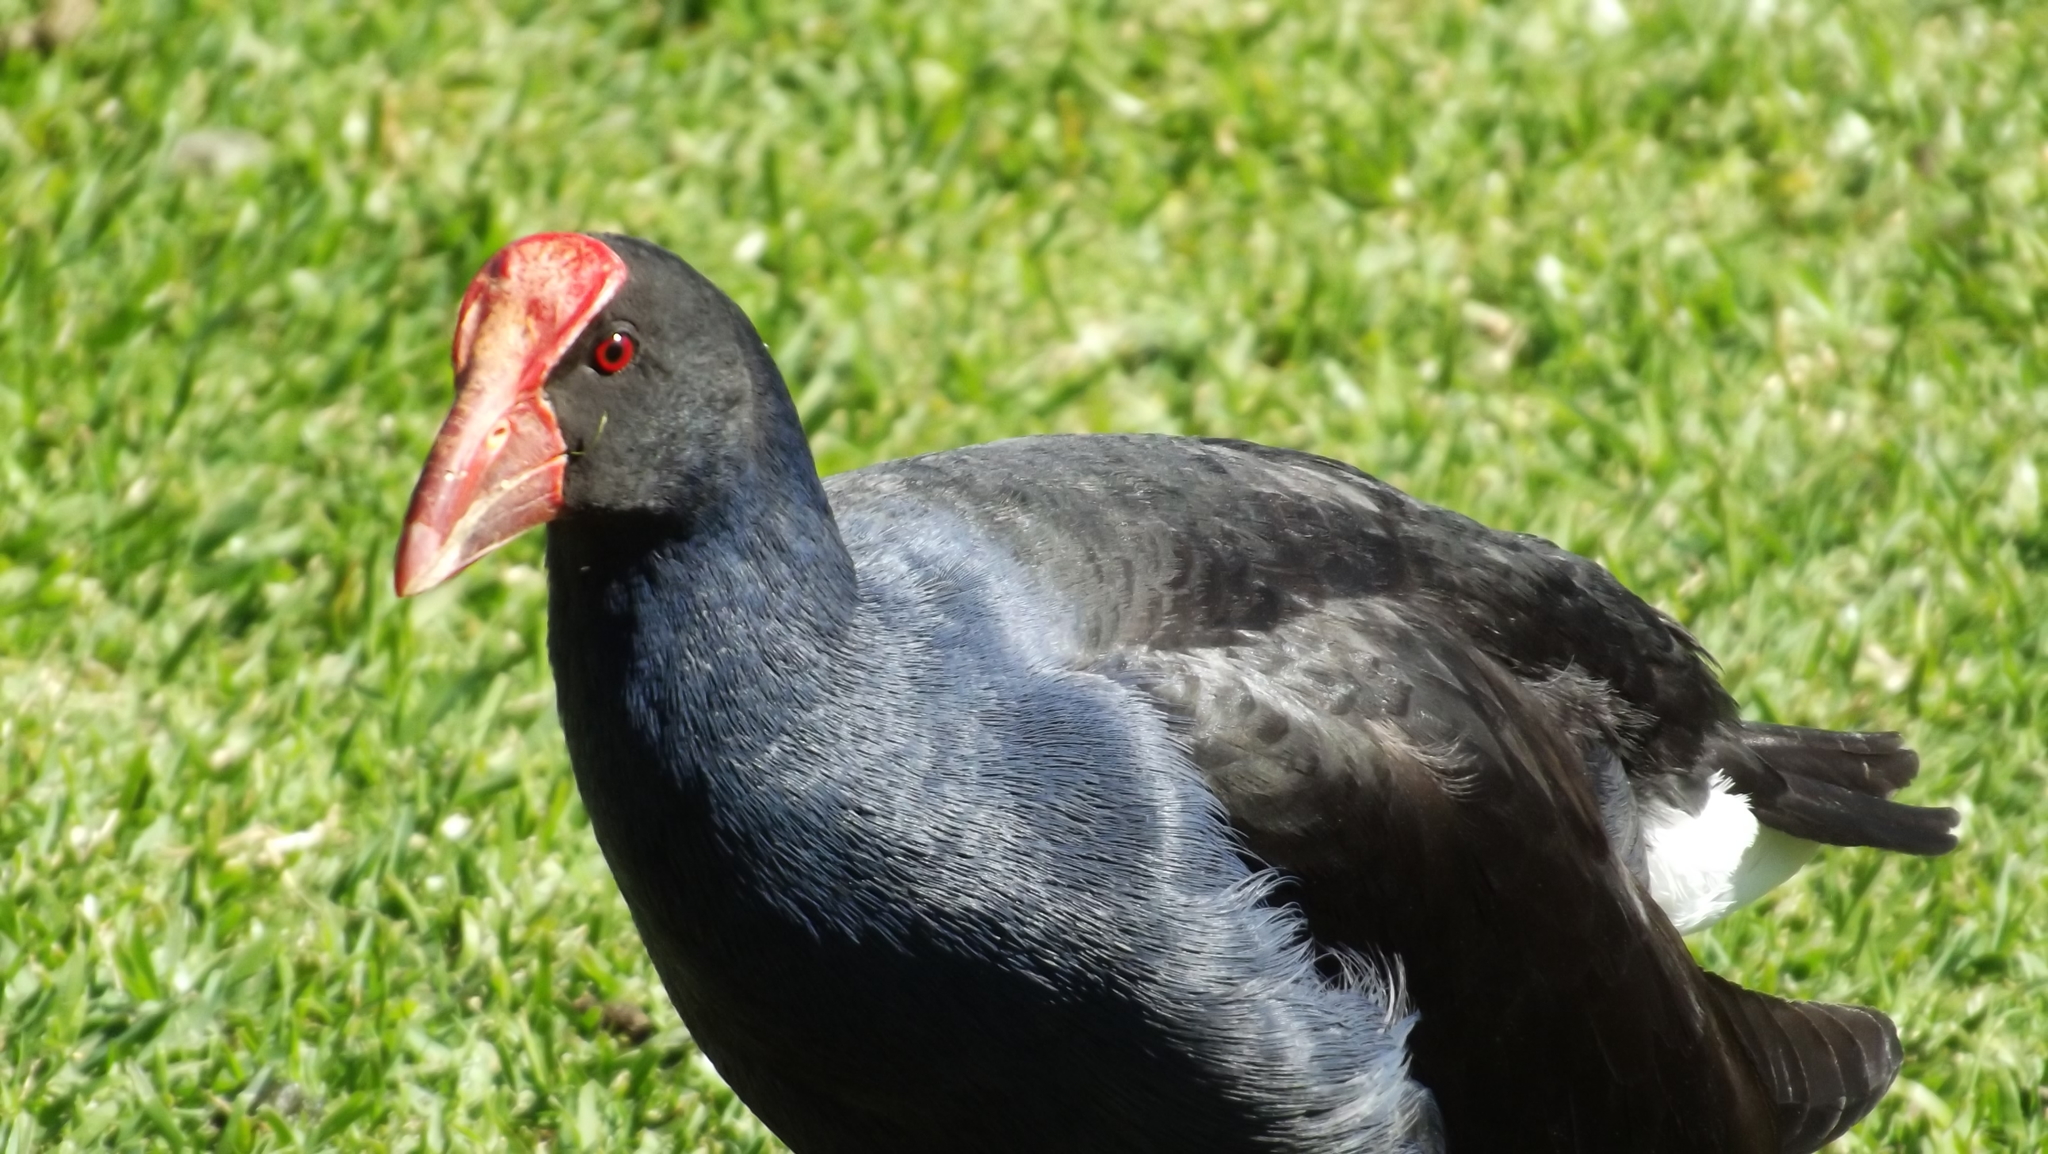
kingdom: Animalia
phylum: Chordata
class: Aves
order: Gruiformes
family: Rallidae
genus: Porphyrio
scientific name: Porphyrio melanotus
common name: Australasian swamphen
